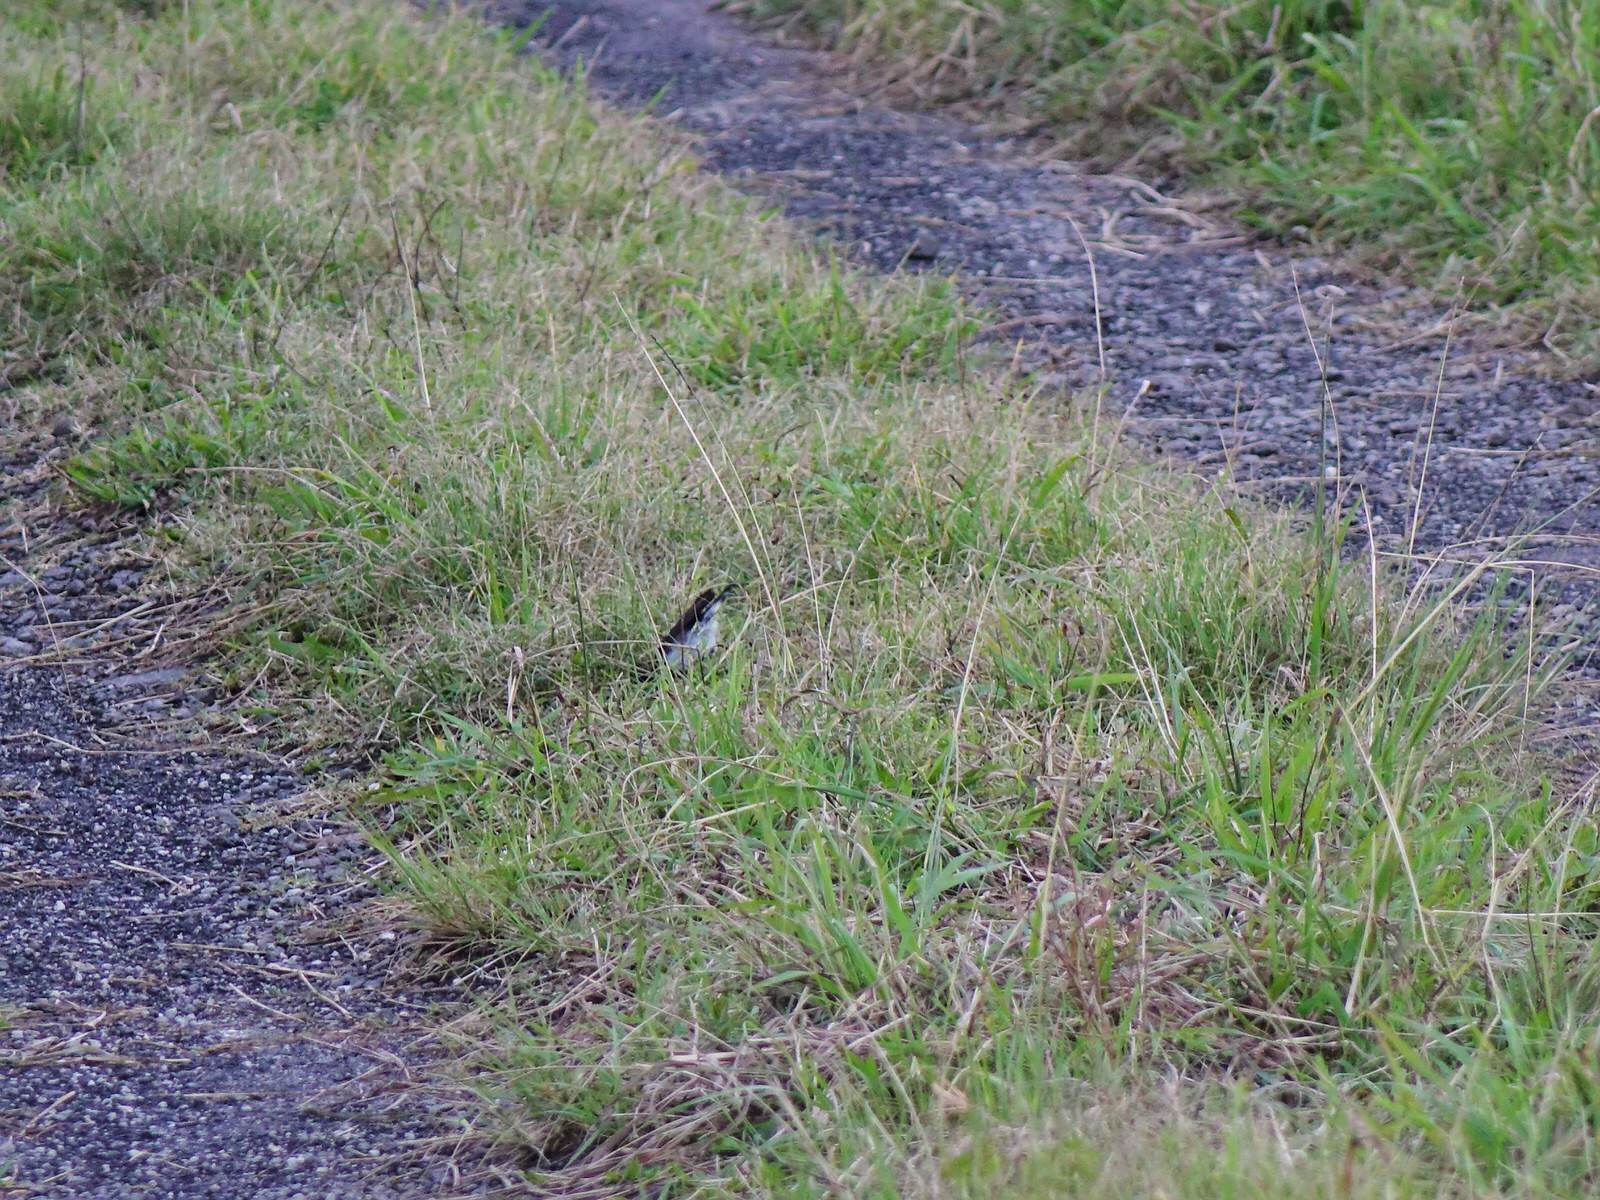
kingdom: Animalia
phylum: Chordata
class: Aves
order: Passeriformes
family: Petroicidae
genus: Petroica
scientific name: Petroica macrocephala
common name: Tomtit
